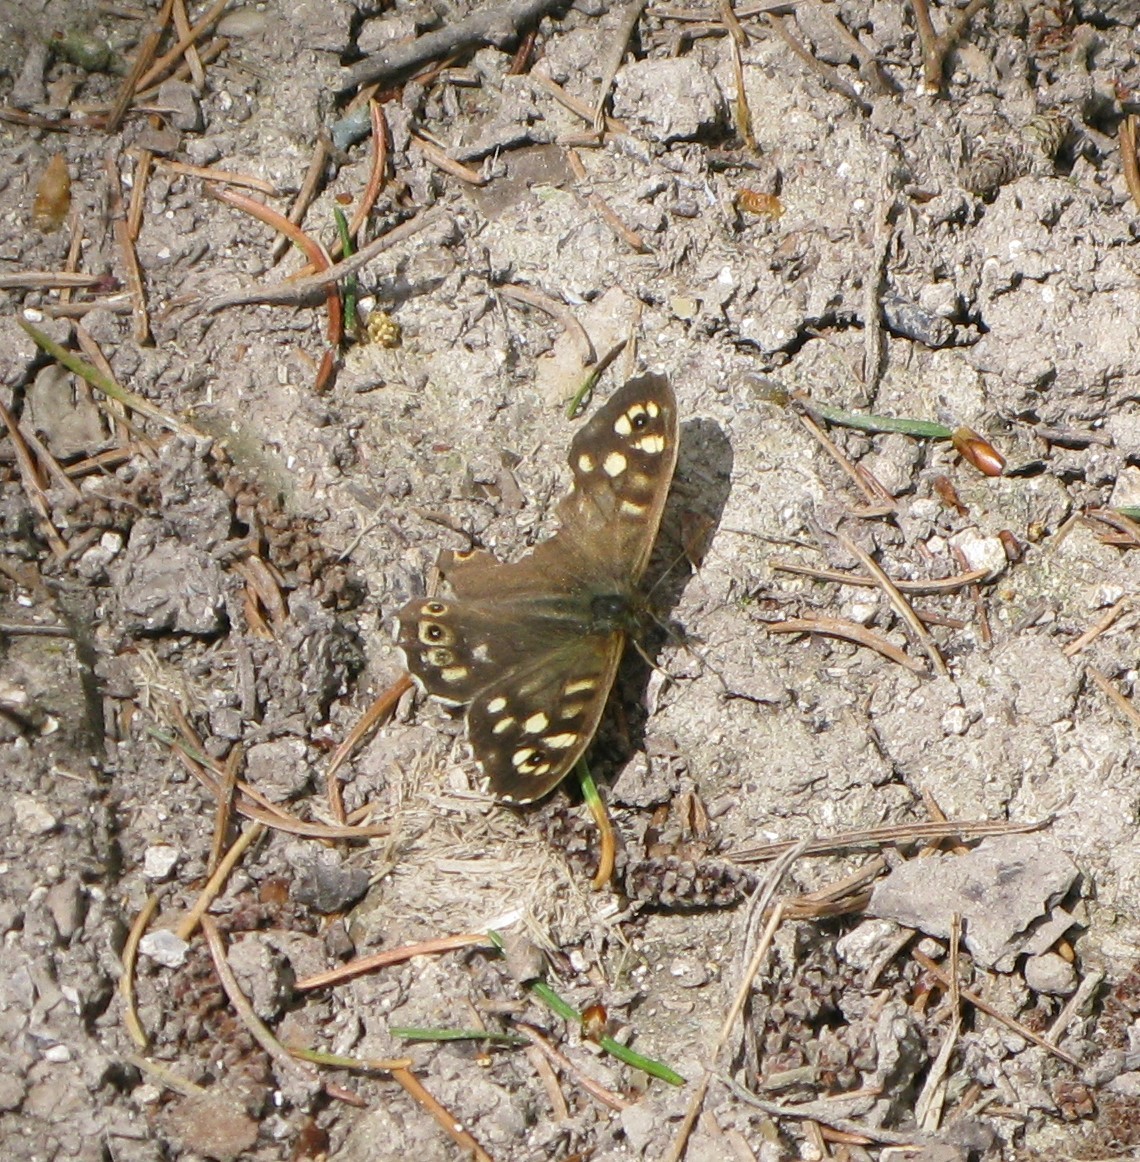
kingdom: Animalia
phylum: Arthropoda
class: Insecta
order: Lepidoptera
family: Nymphalidae
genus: Pararge
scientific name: Pararge aegeria
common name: Speckled wood
